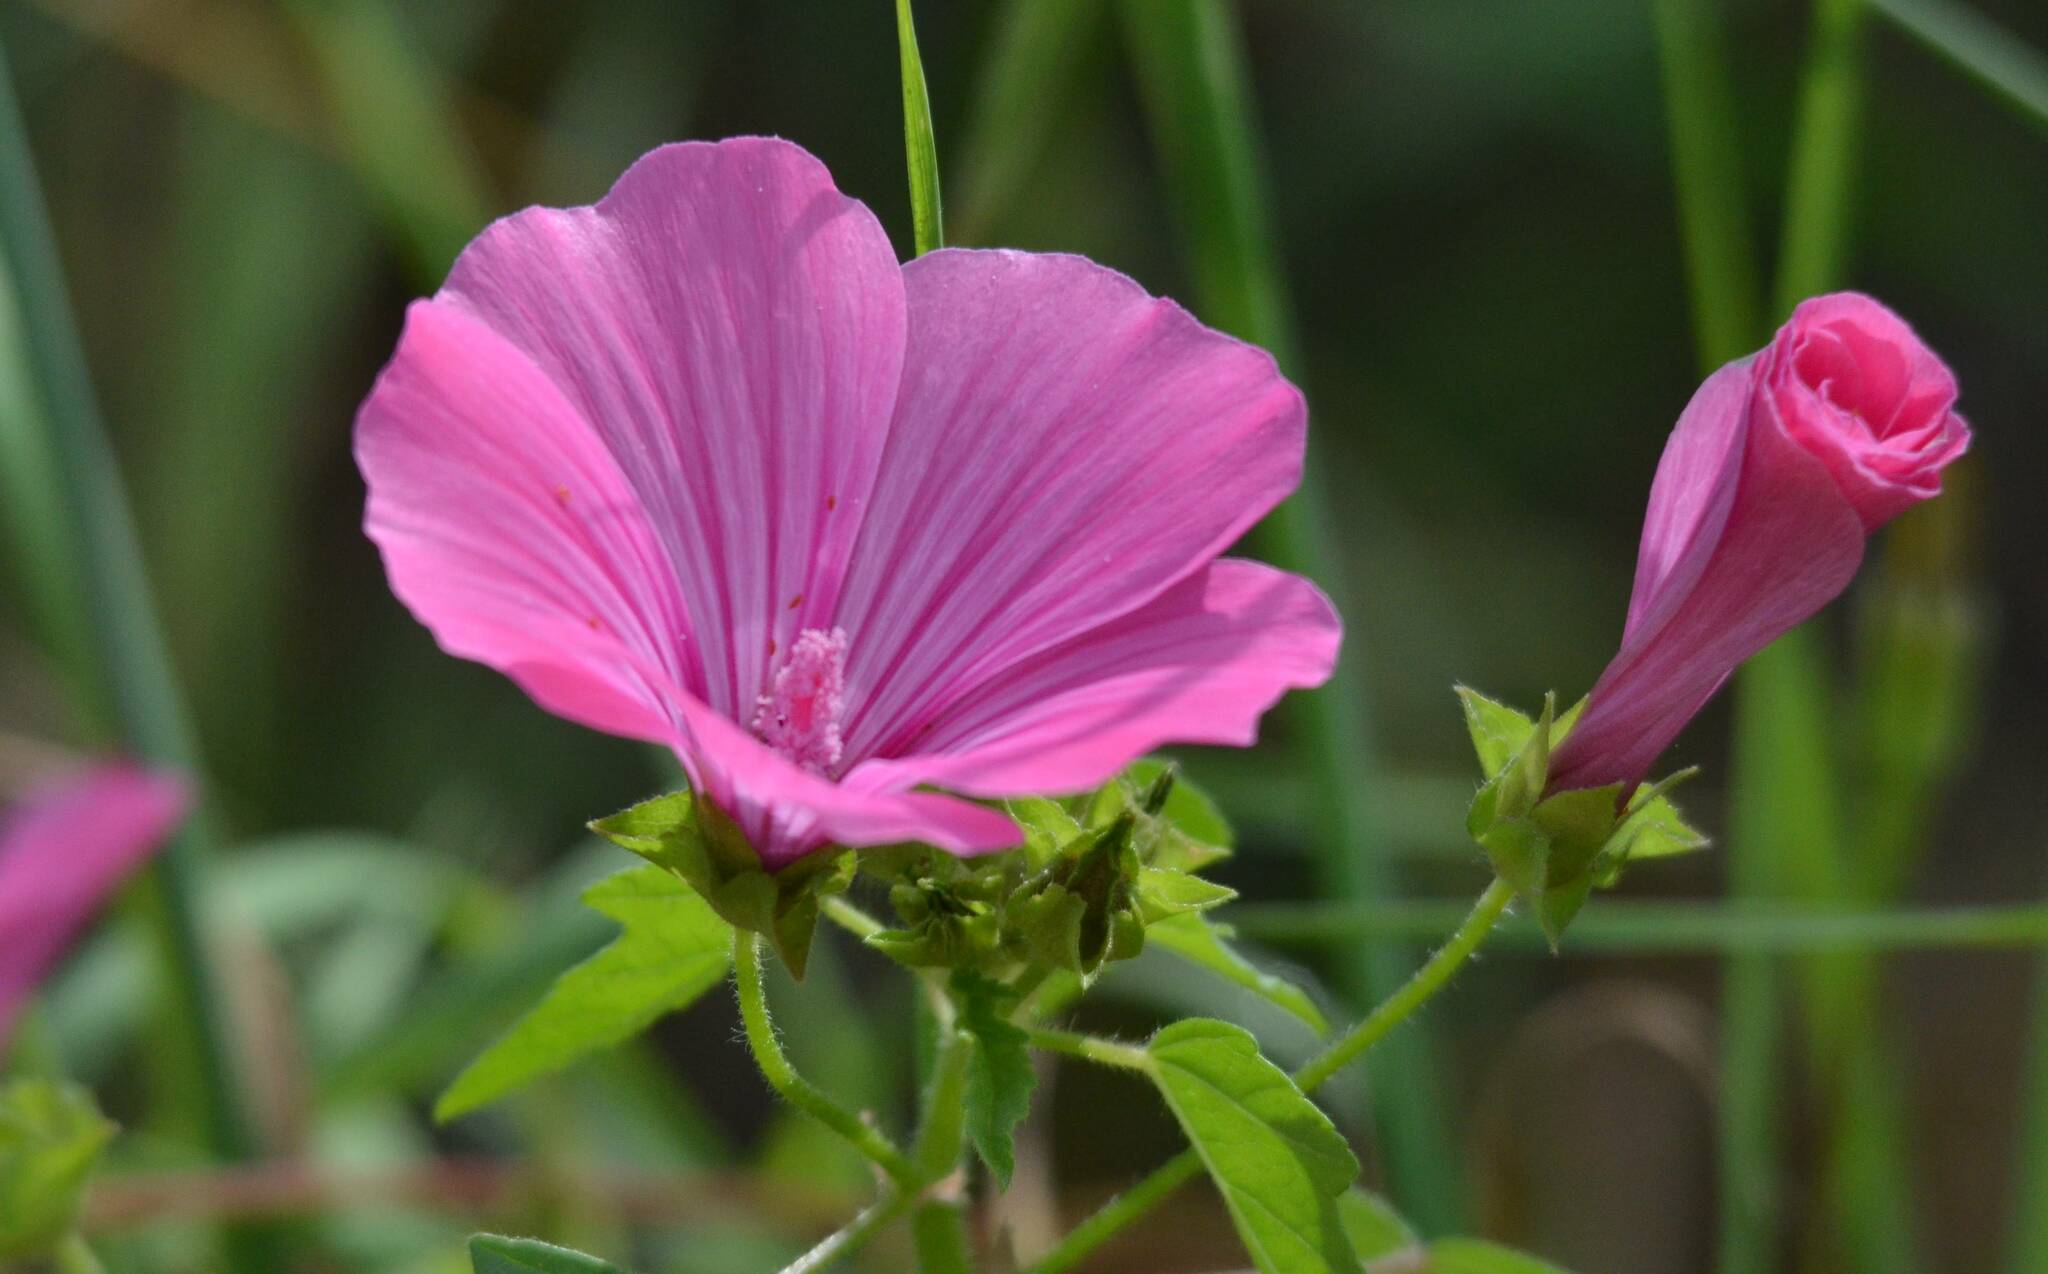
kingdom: Plantae
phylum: Tracheophyta
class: Magnoliopsida
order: Malvales
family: Malvaceae
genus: Malva
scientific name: Malva trimestris
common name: Royal mallow
